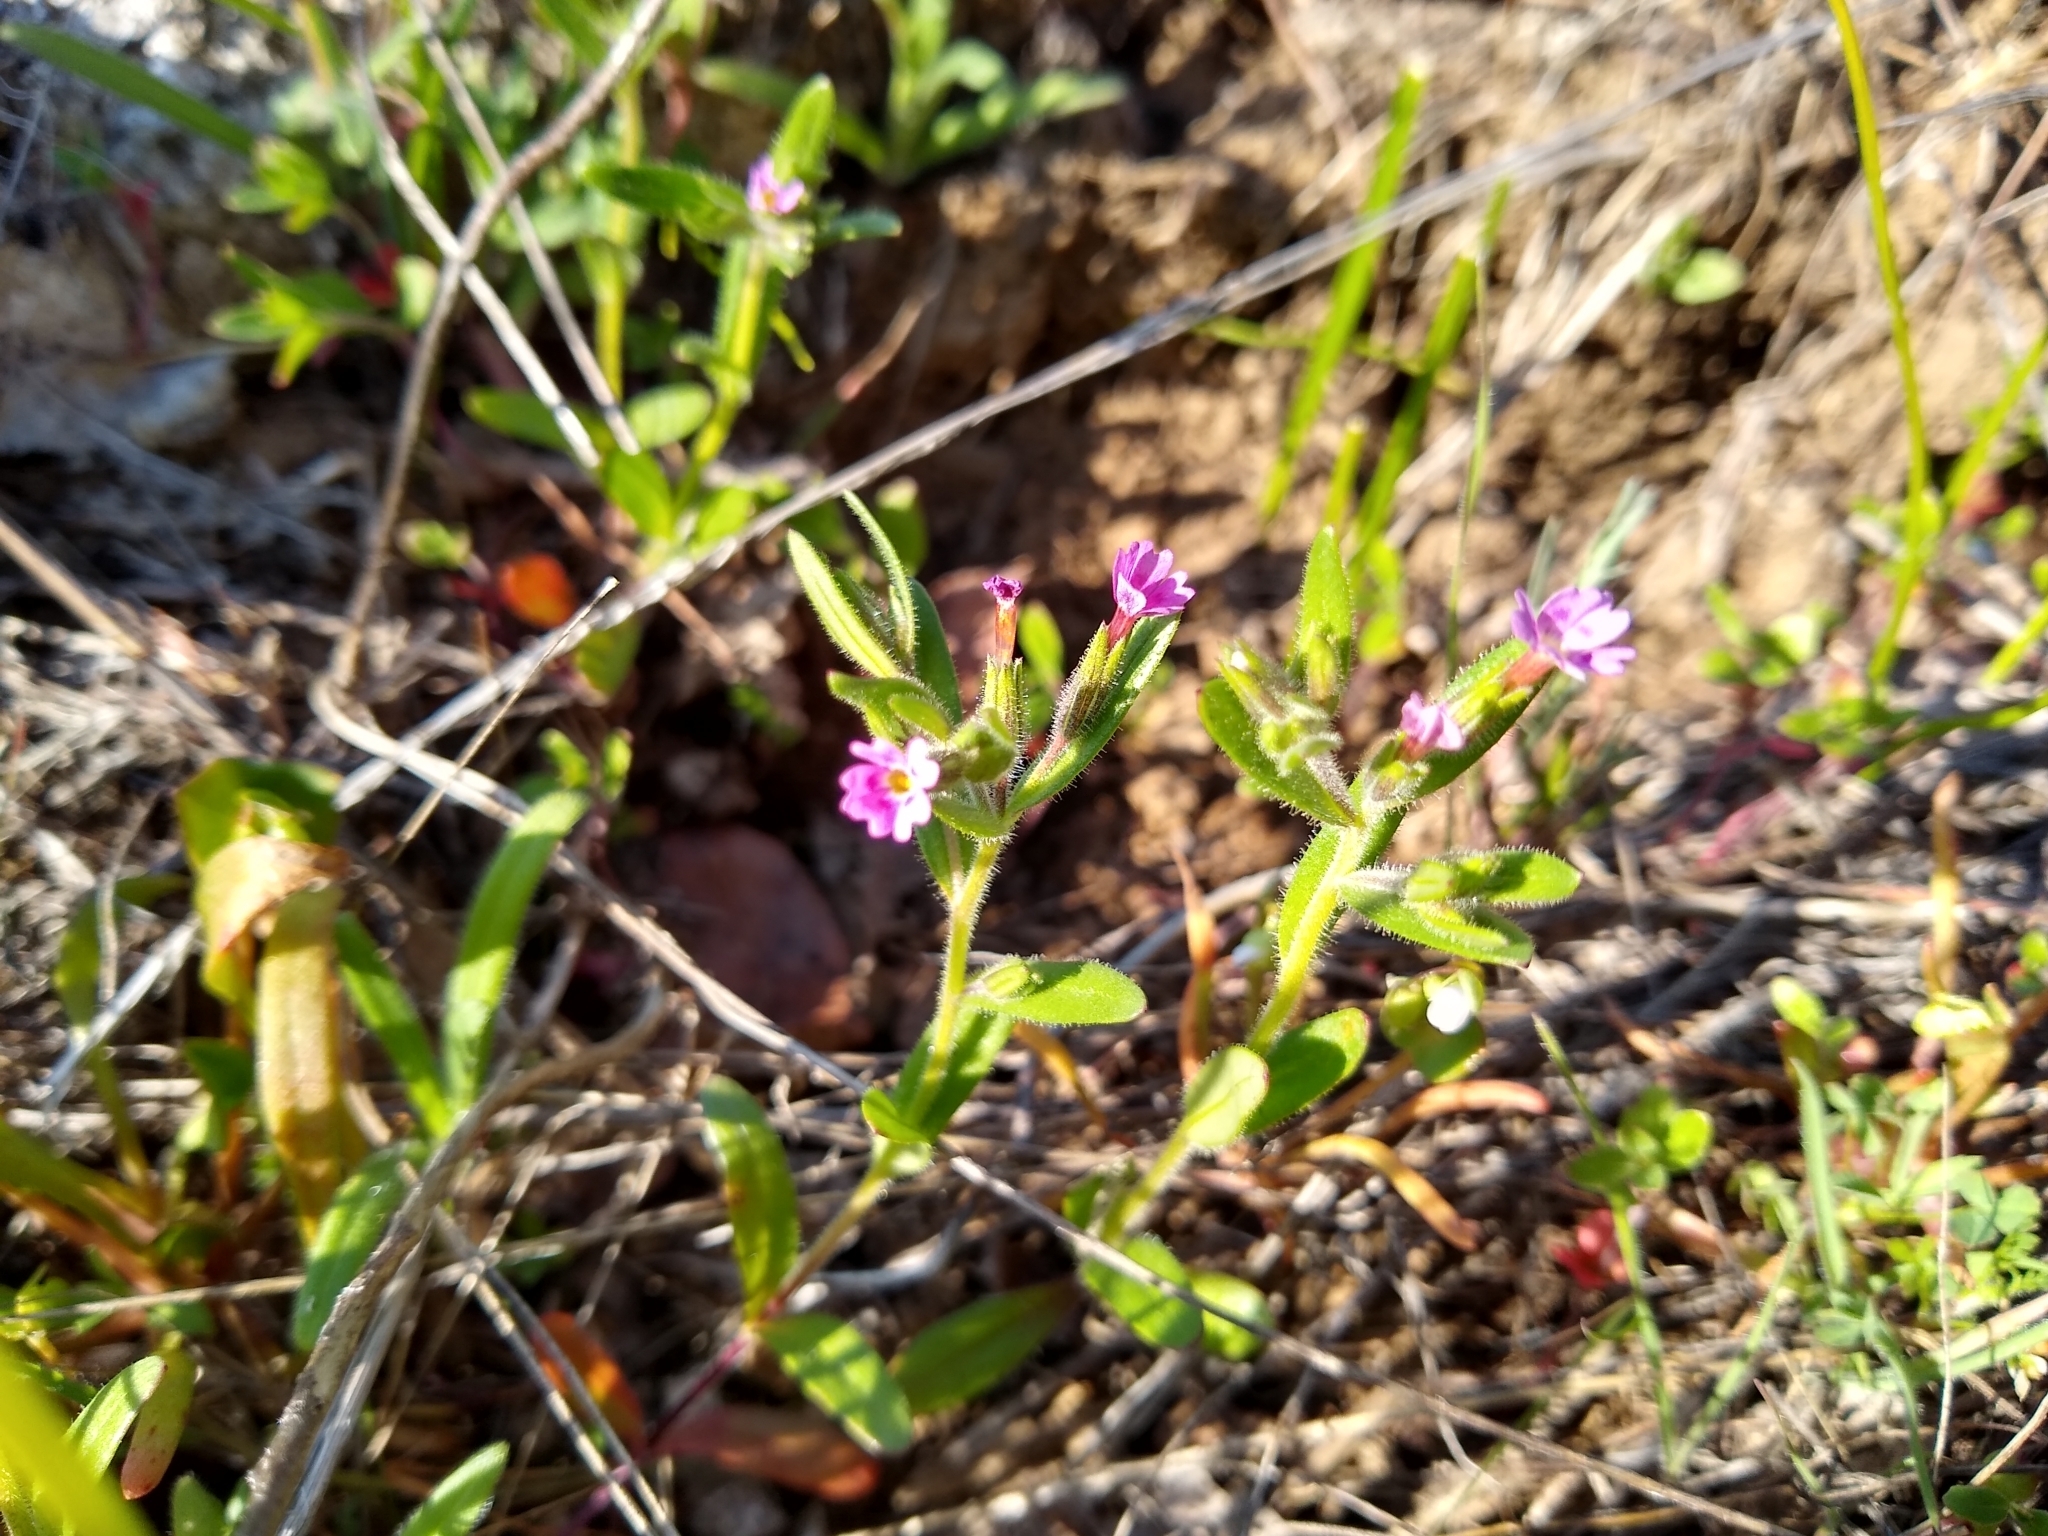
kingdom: Plantae
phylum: Tracheophyta
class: Magnoliopsida
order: Ericales
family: Polemoniaceae
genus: Phlox
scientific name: Phlox gracilis
